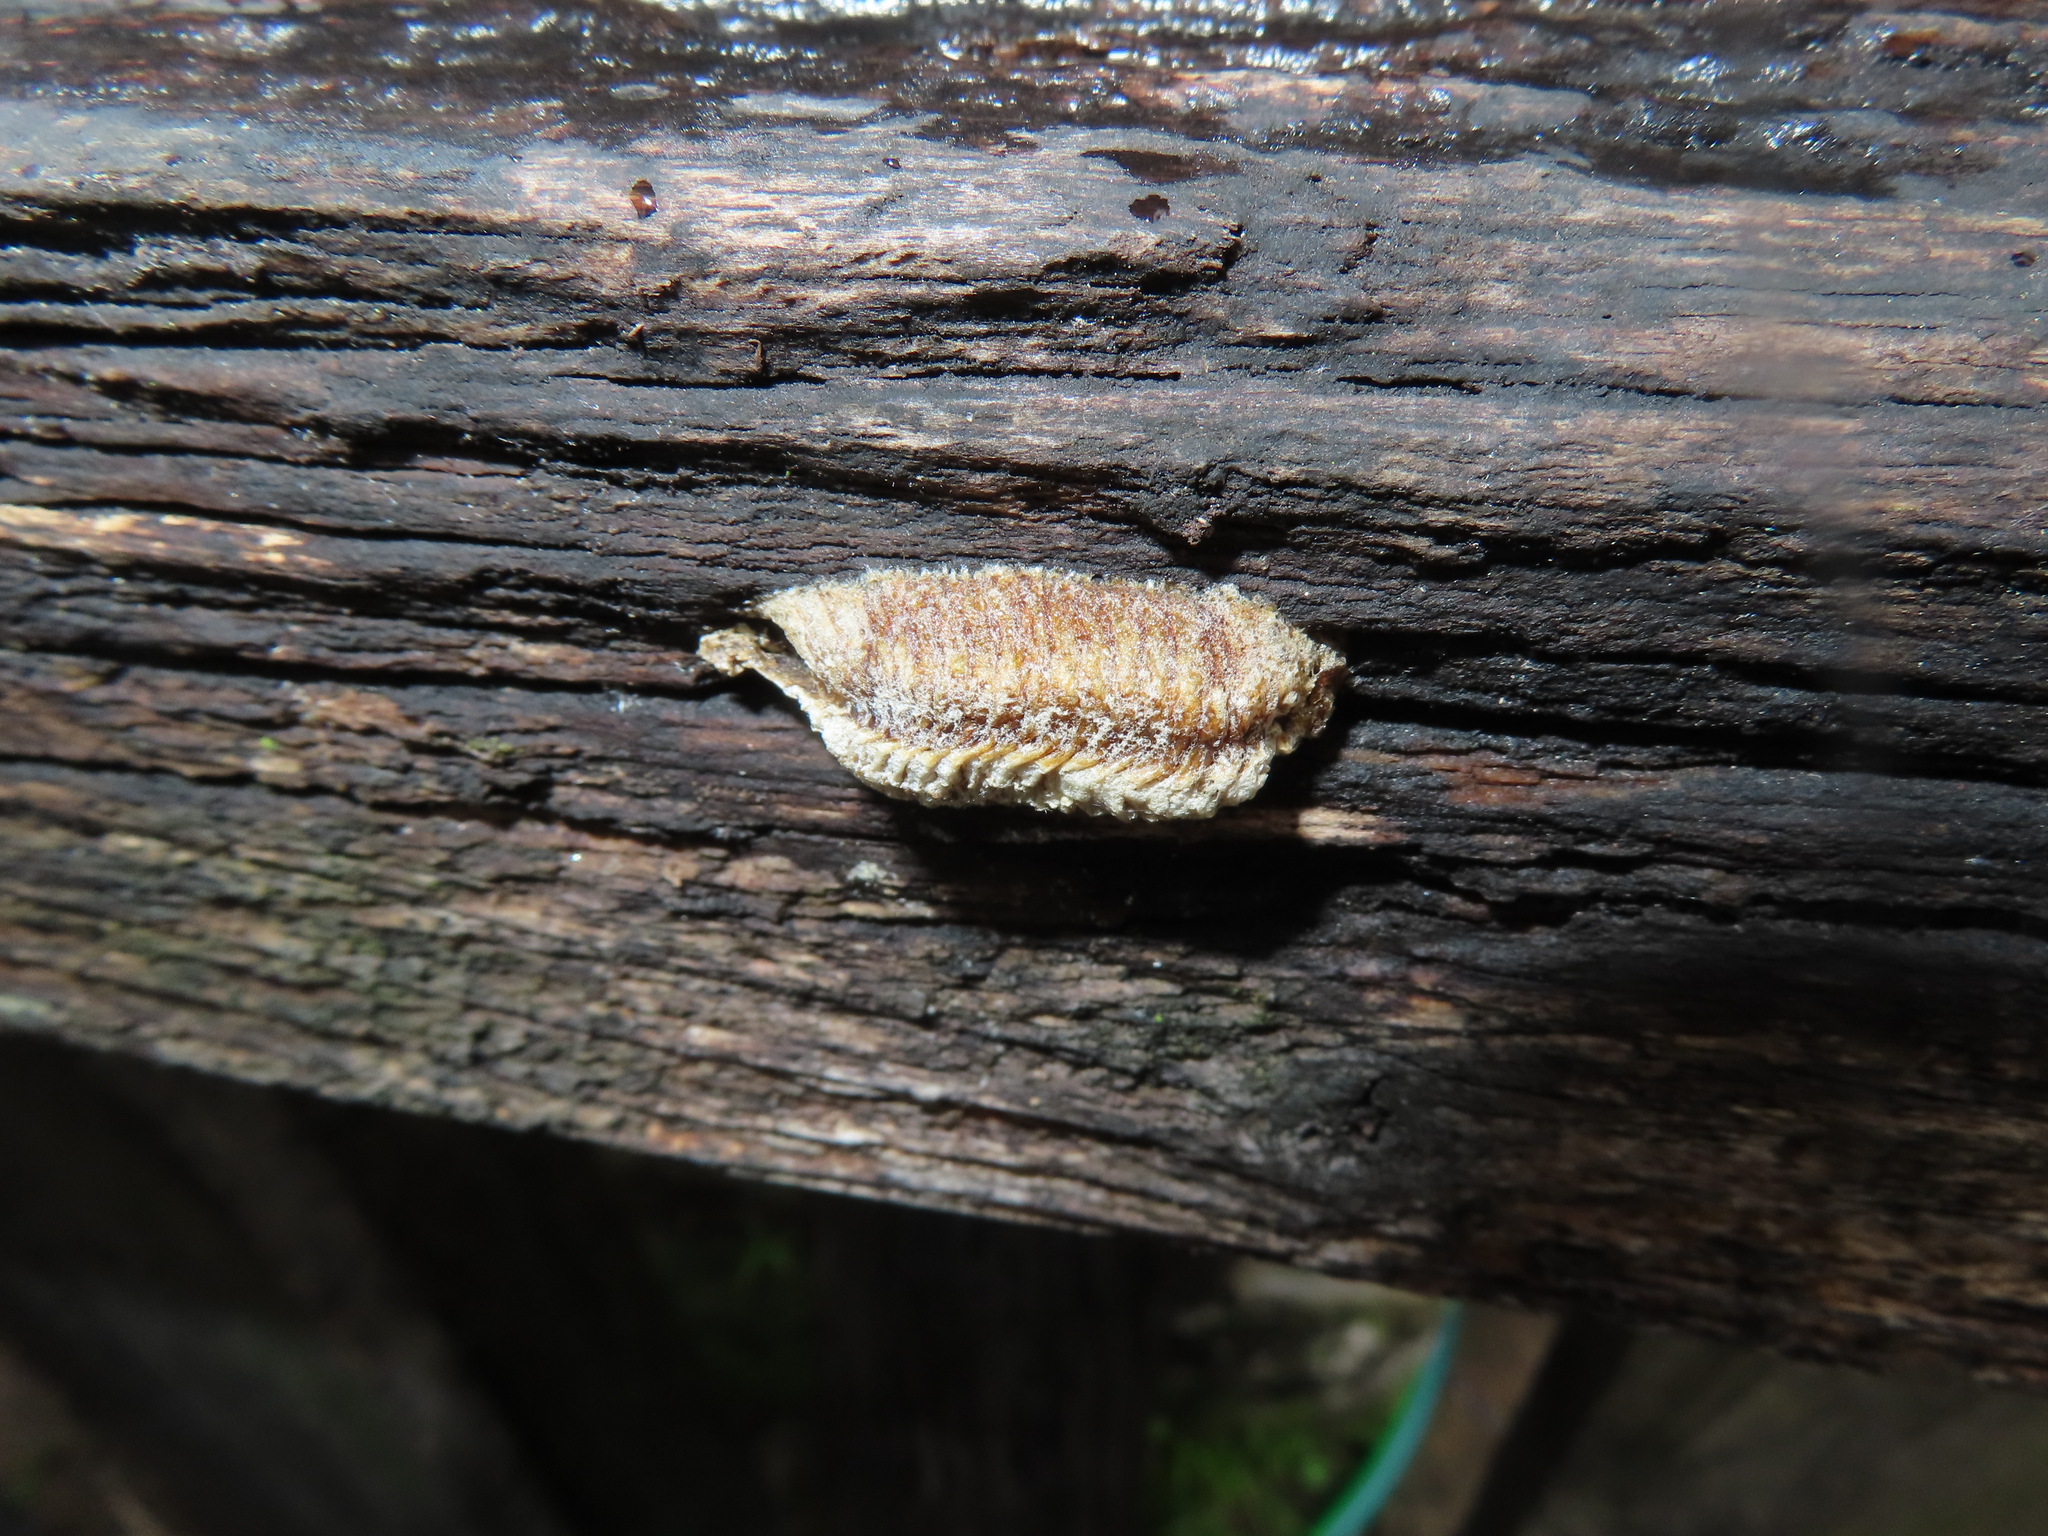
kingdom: Animalia
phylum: Arthropoda
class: Insecta
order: Mantodea
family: Mantidae
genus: Stagmomantis
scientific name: Stagmomantis carolina
